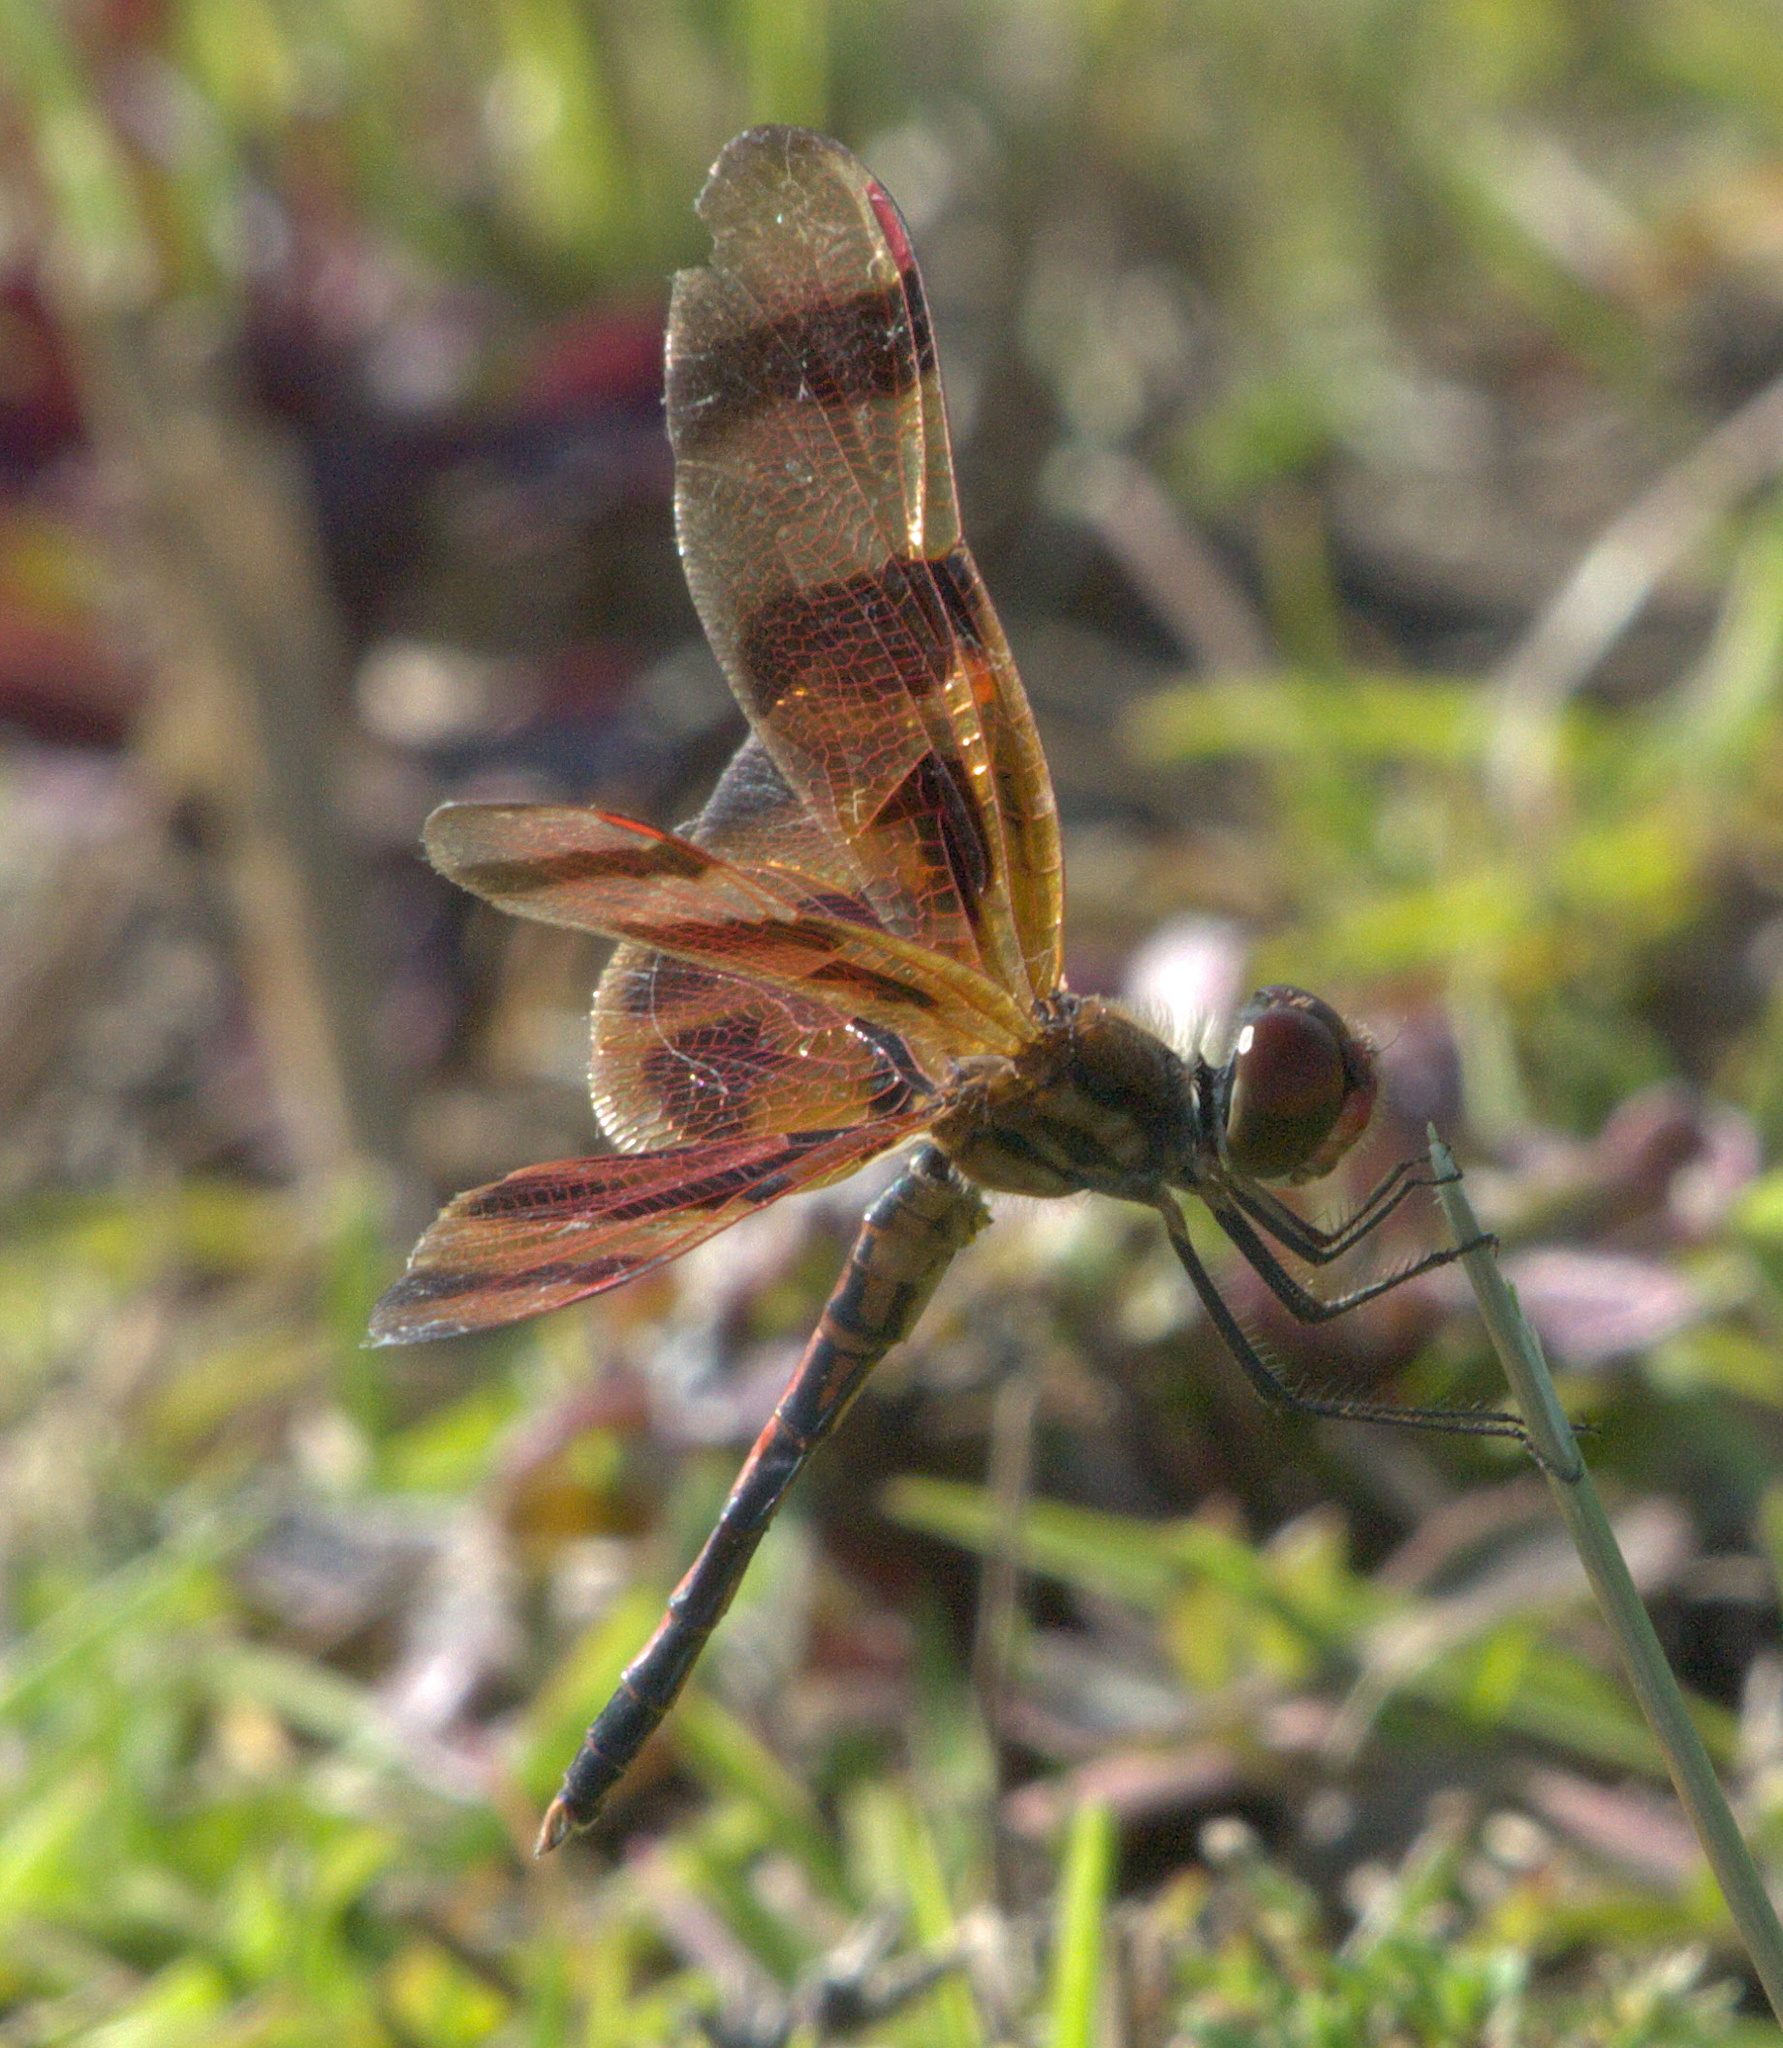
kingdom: Animalia
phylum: Arthropoda
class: Insecta
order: Odonata
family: Libellulidae
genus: Celithemis
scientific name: Celithemis eponina
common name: Halloween pennant
